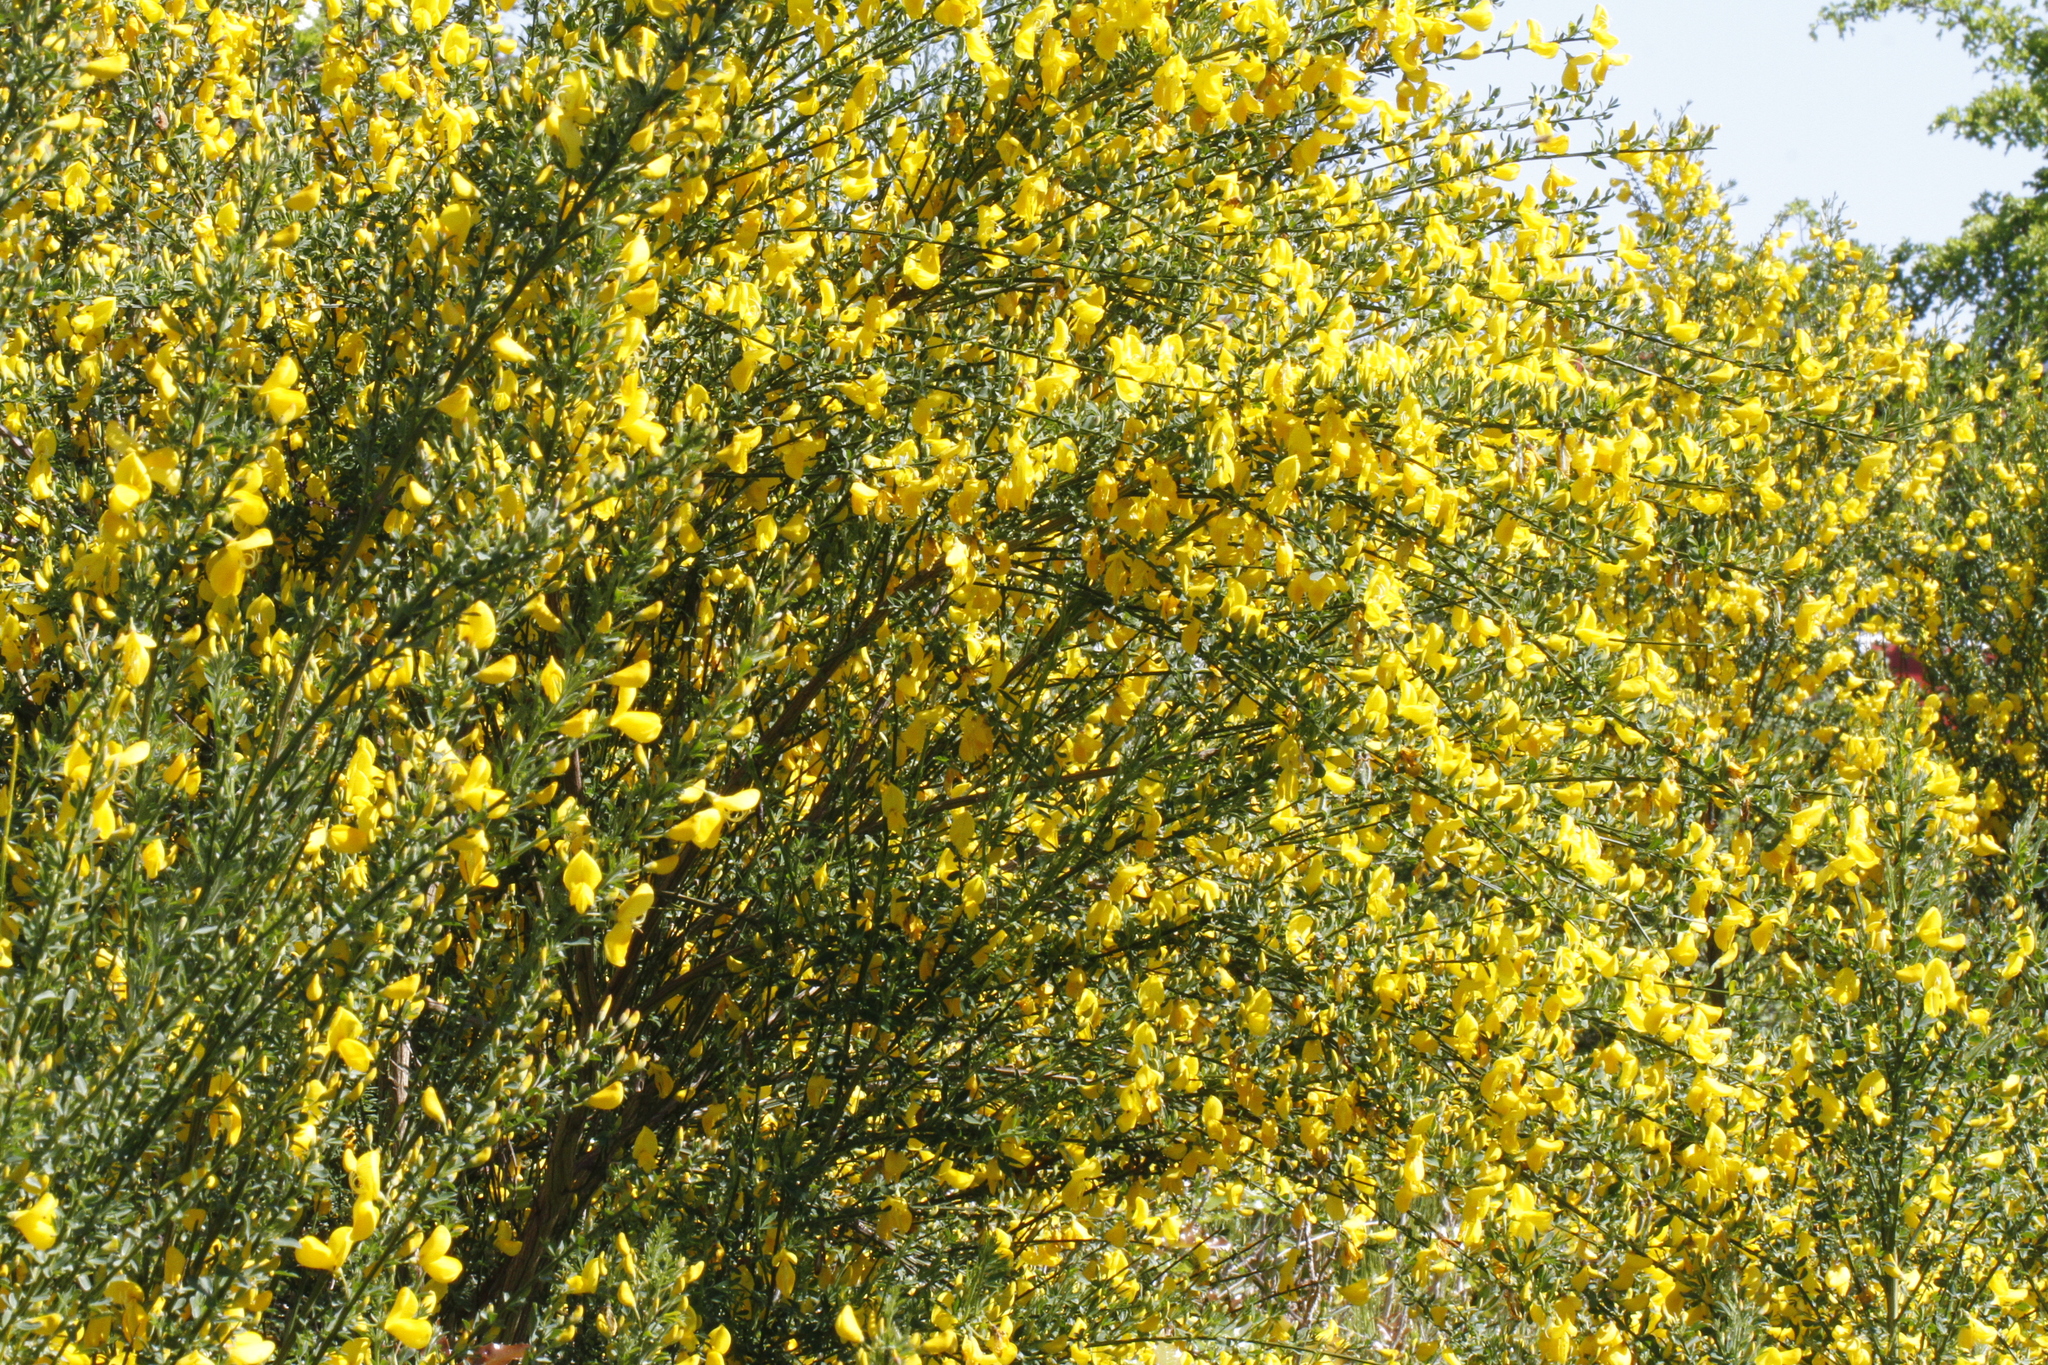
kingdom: Plantae
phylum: Tracheophyta
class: Magnoliopsida
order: Fabales
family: Fabaceae
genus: Cytisus
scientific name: Cytisus scoparius
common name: Scotch broom
